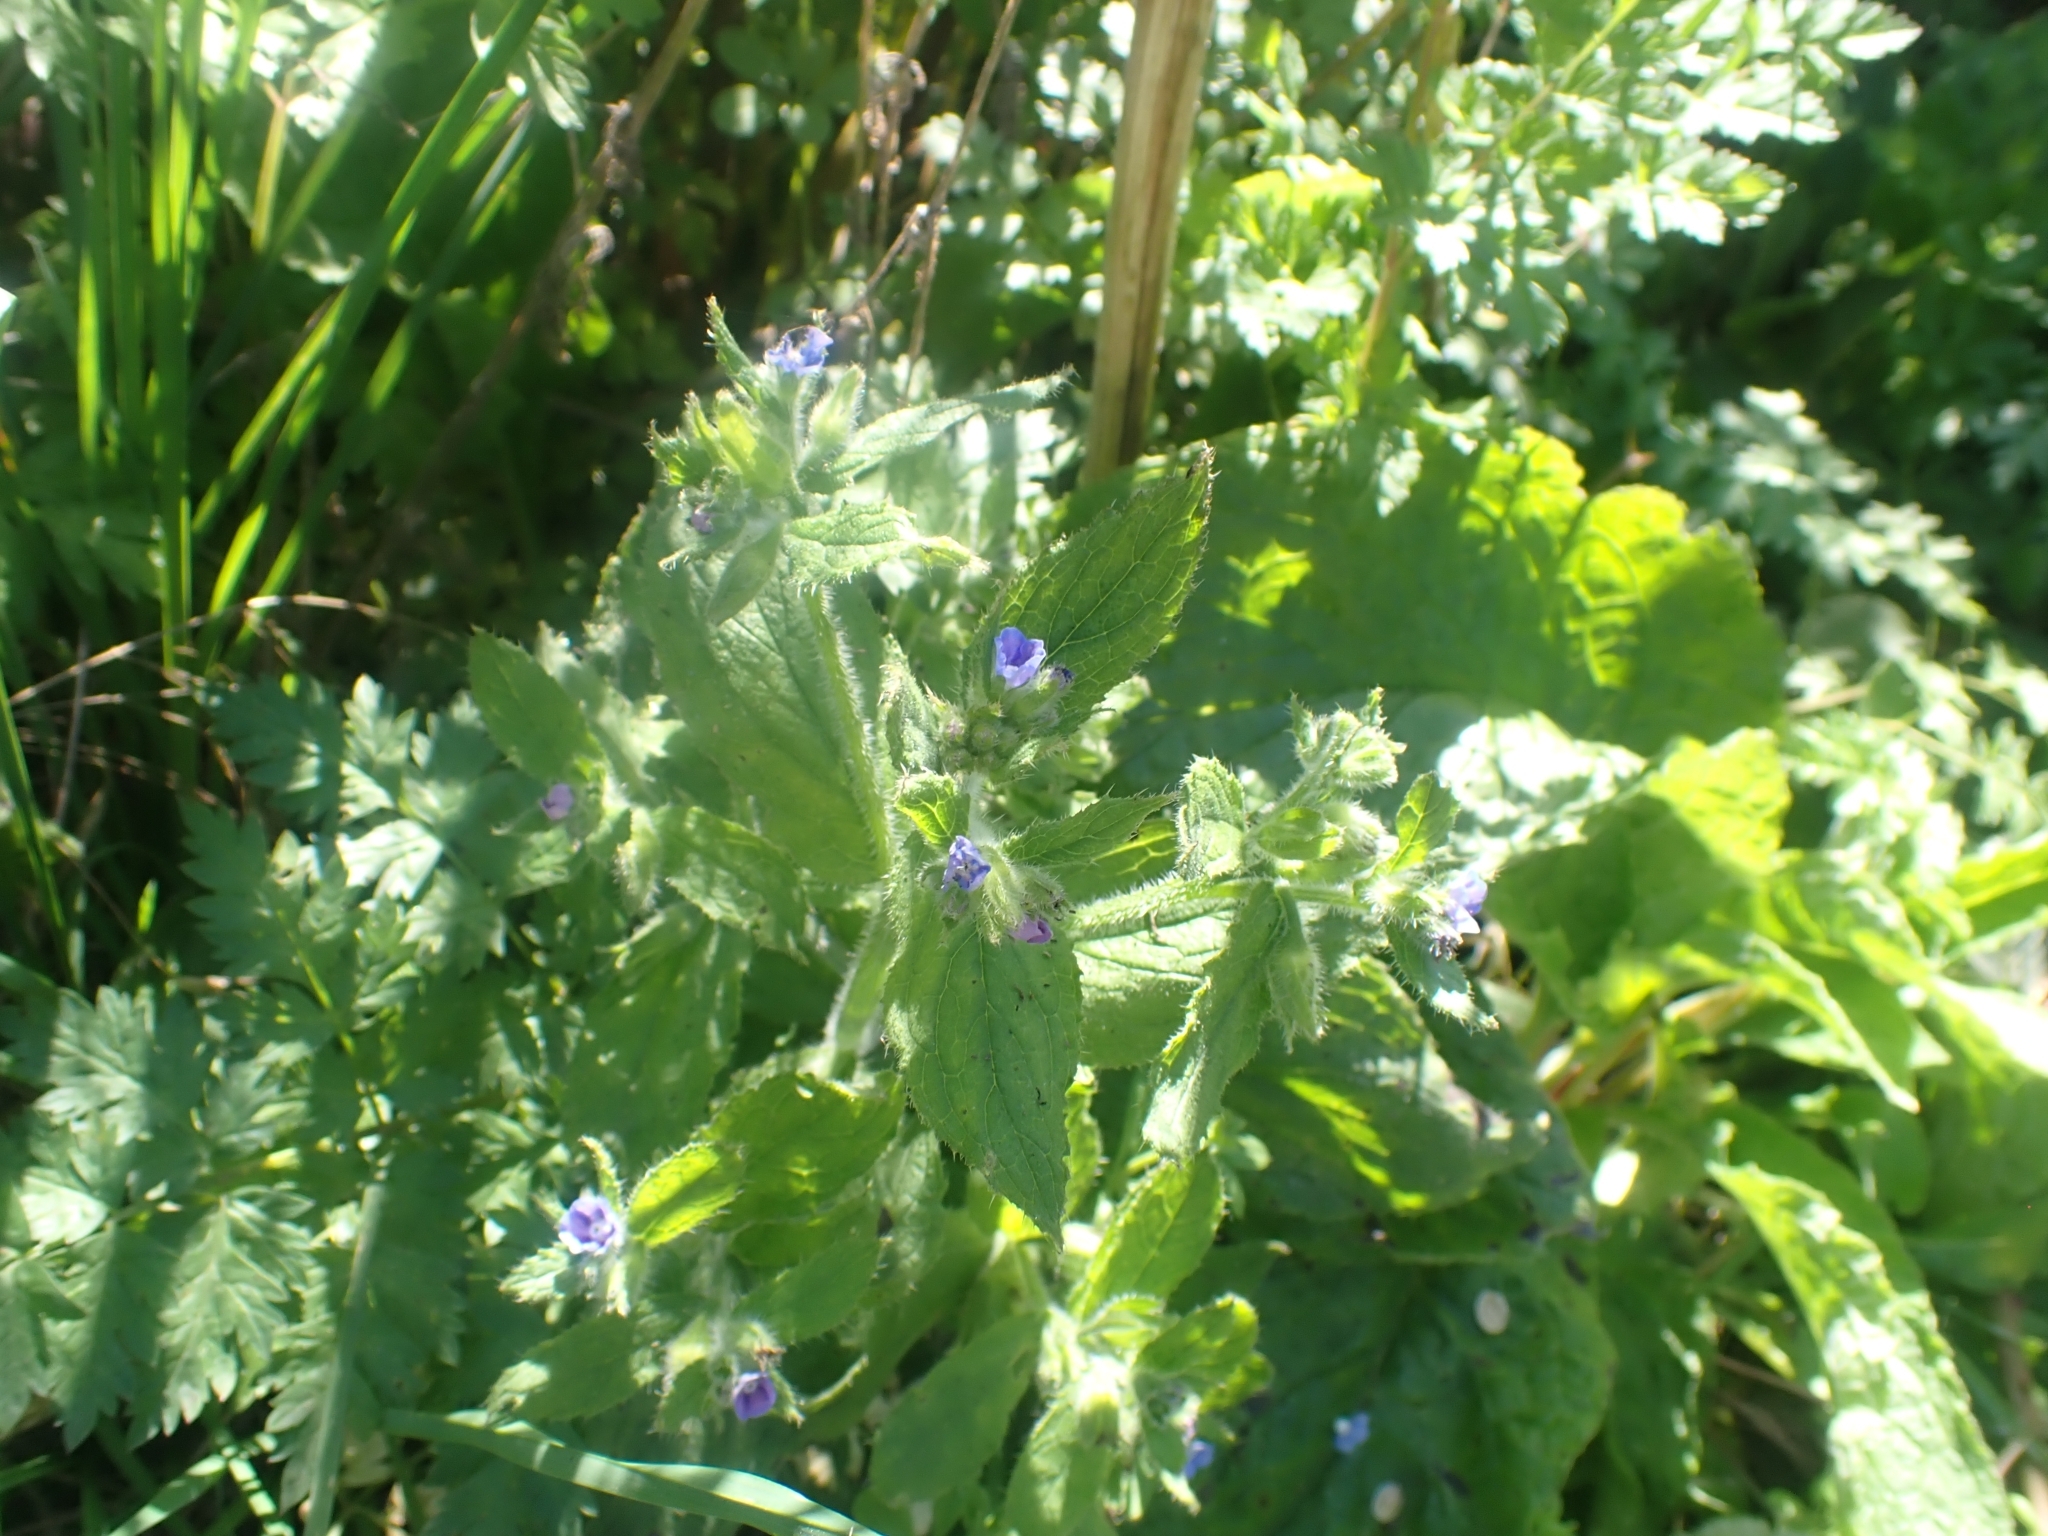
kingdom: Plantae
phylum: Tracheophyta
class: Magnoliopsida
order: Boraginales
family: Boraginaceae
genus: Pentaglottis
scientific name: Pentaglottis sempervirens
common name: Green alkanet
